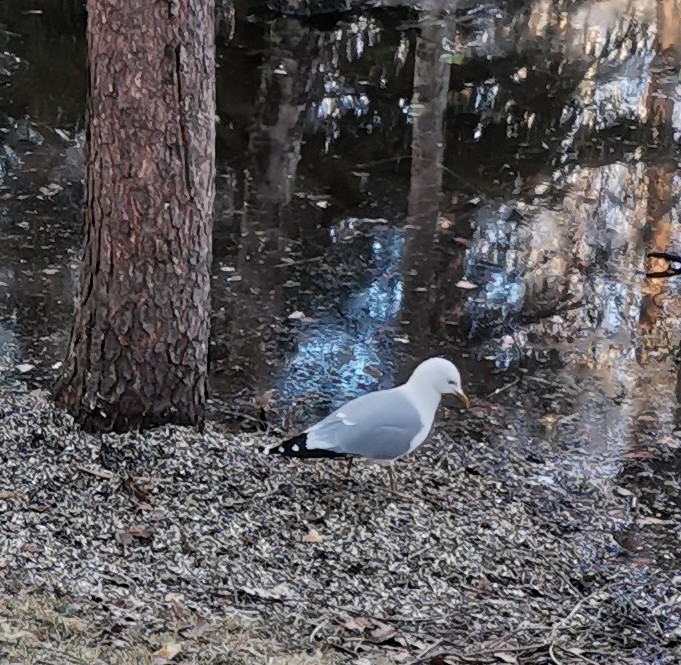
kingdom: Animalia
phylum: Chordata
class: Aves
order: Charadriiformes
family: Laridae
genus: Larus
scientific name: Larus canus
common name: Mew gull
